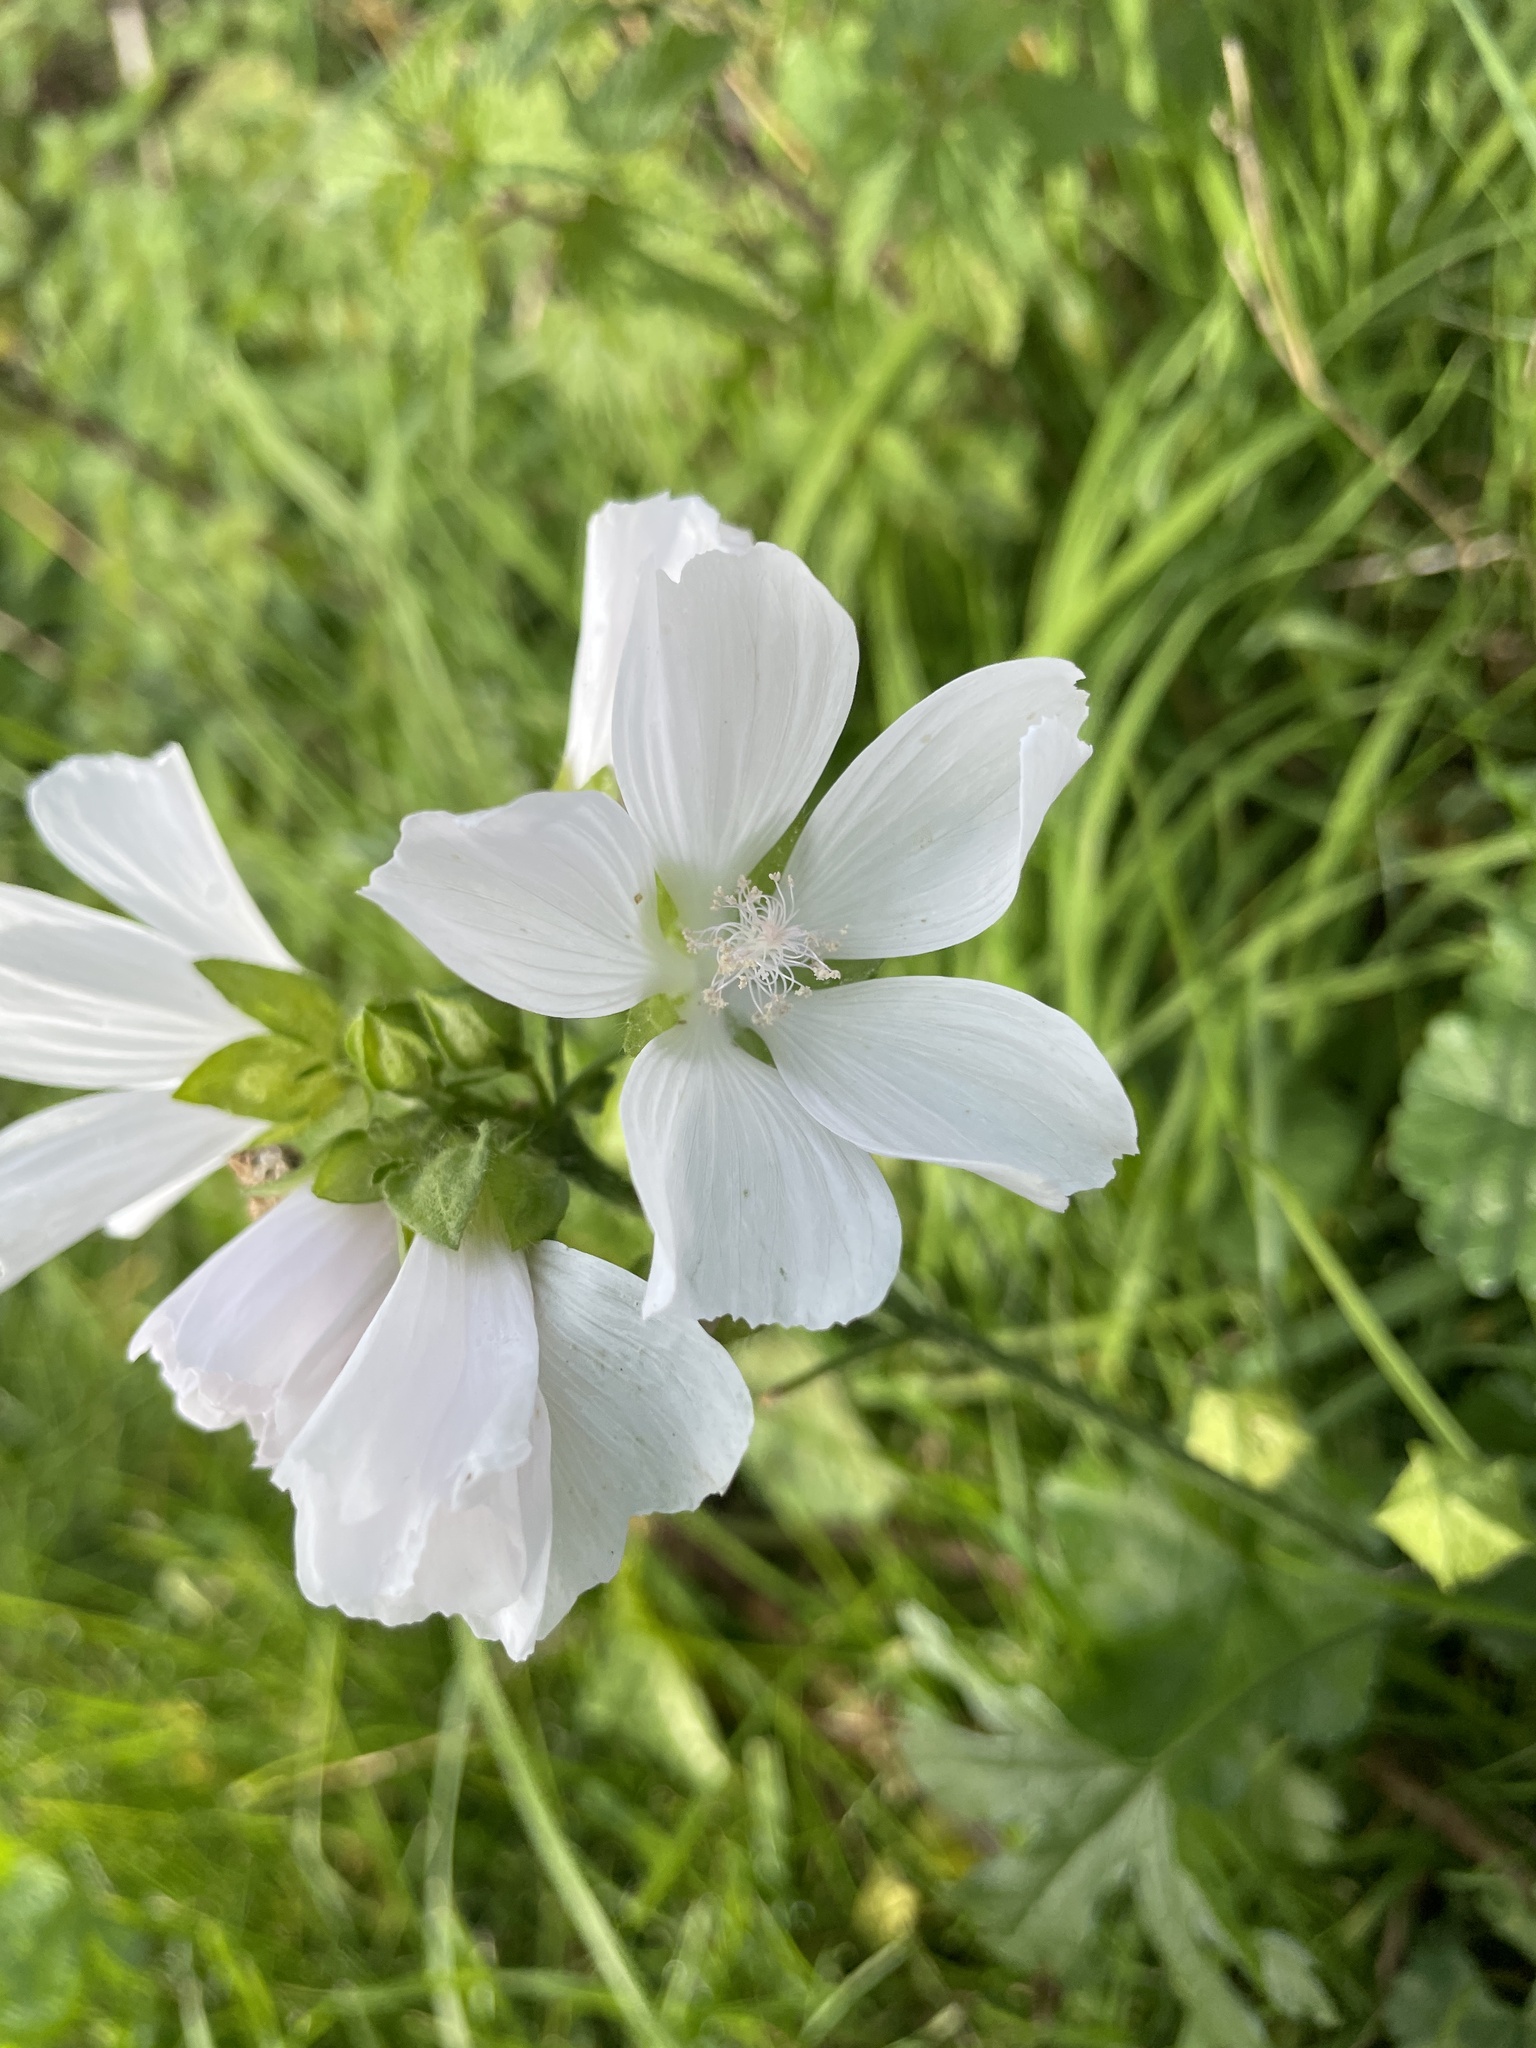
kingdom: Plantae
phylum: Tracheophyta
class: Magnoliopsida
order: Malvales
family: Malvaceae
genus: Malva
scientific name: Malva moschata
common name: Musk mallow
